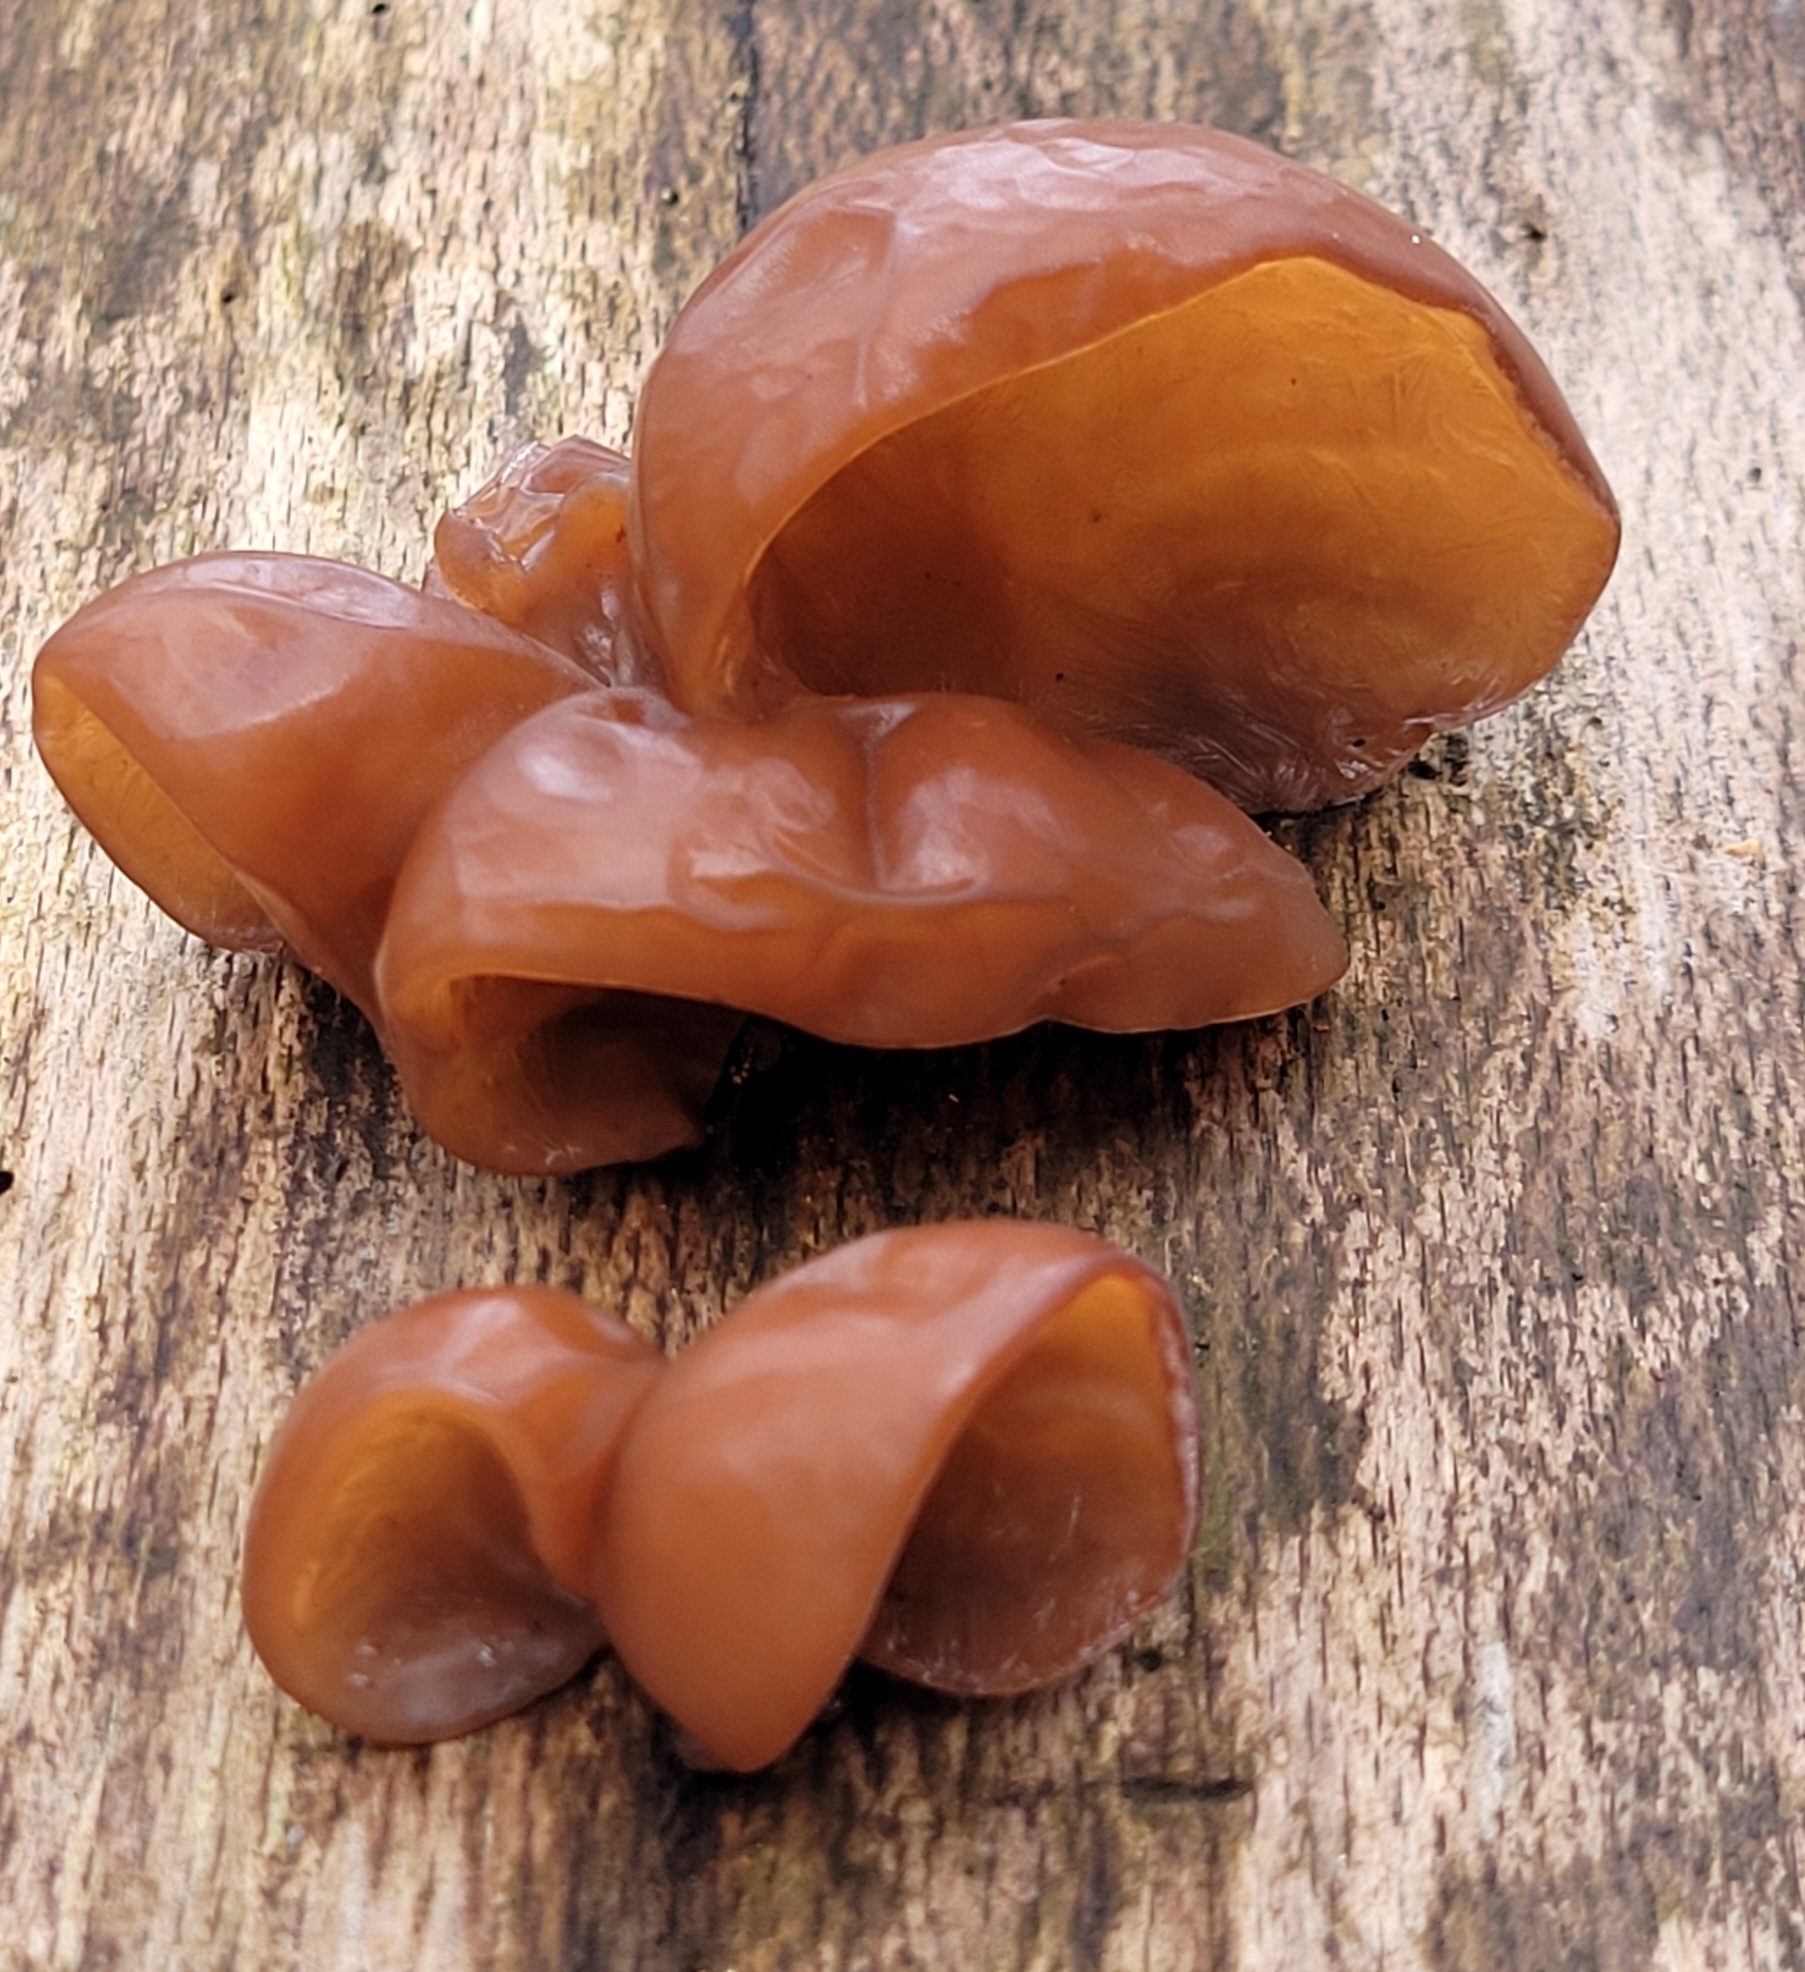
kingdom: Fungi
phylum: Basidiomycota
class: Agaricomycetes
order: Auriculariales
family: Auriculariaceae
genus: Auricularia
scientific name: Auricularia auricula-judae
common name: Jelly ear
